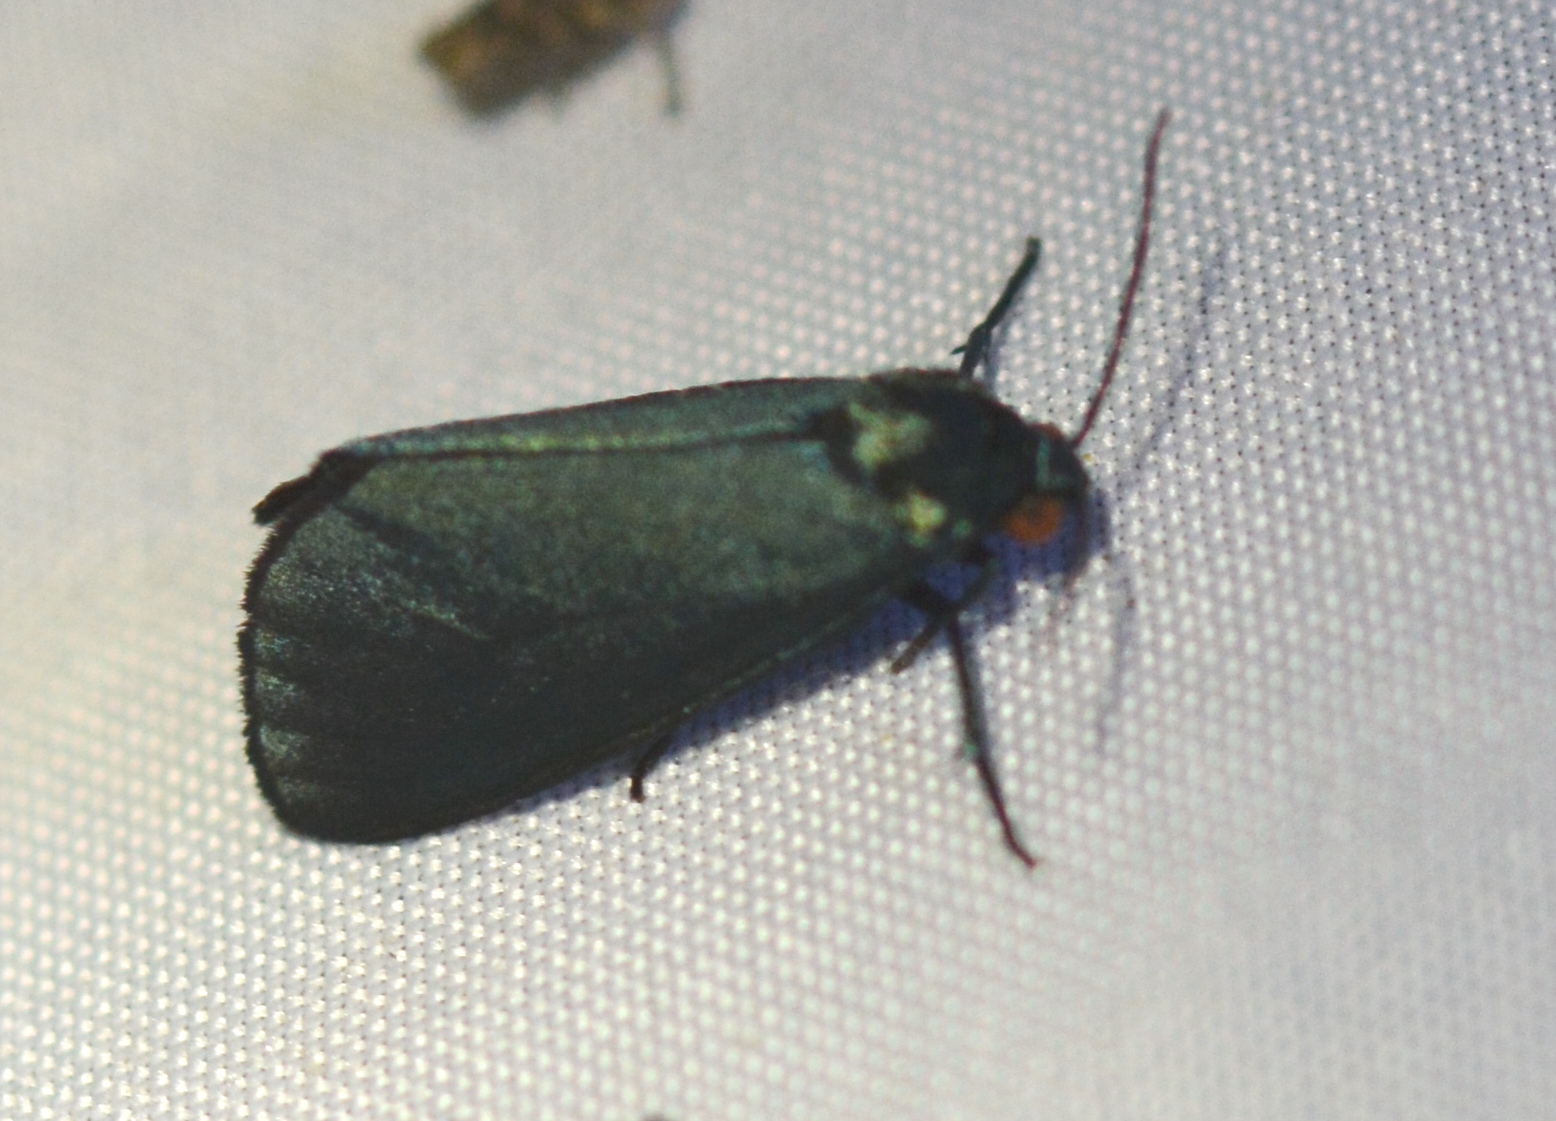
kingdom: Animalia
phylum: Arthropoda
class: Insecta
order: Lepidoptera
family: Erebidae
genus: Stenucha
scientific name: Stenucha dolens
